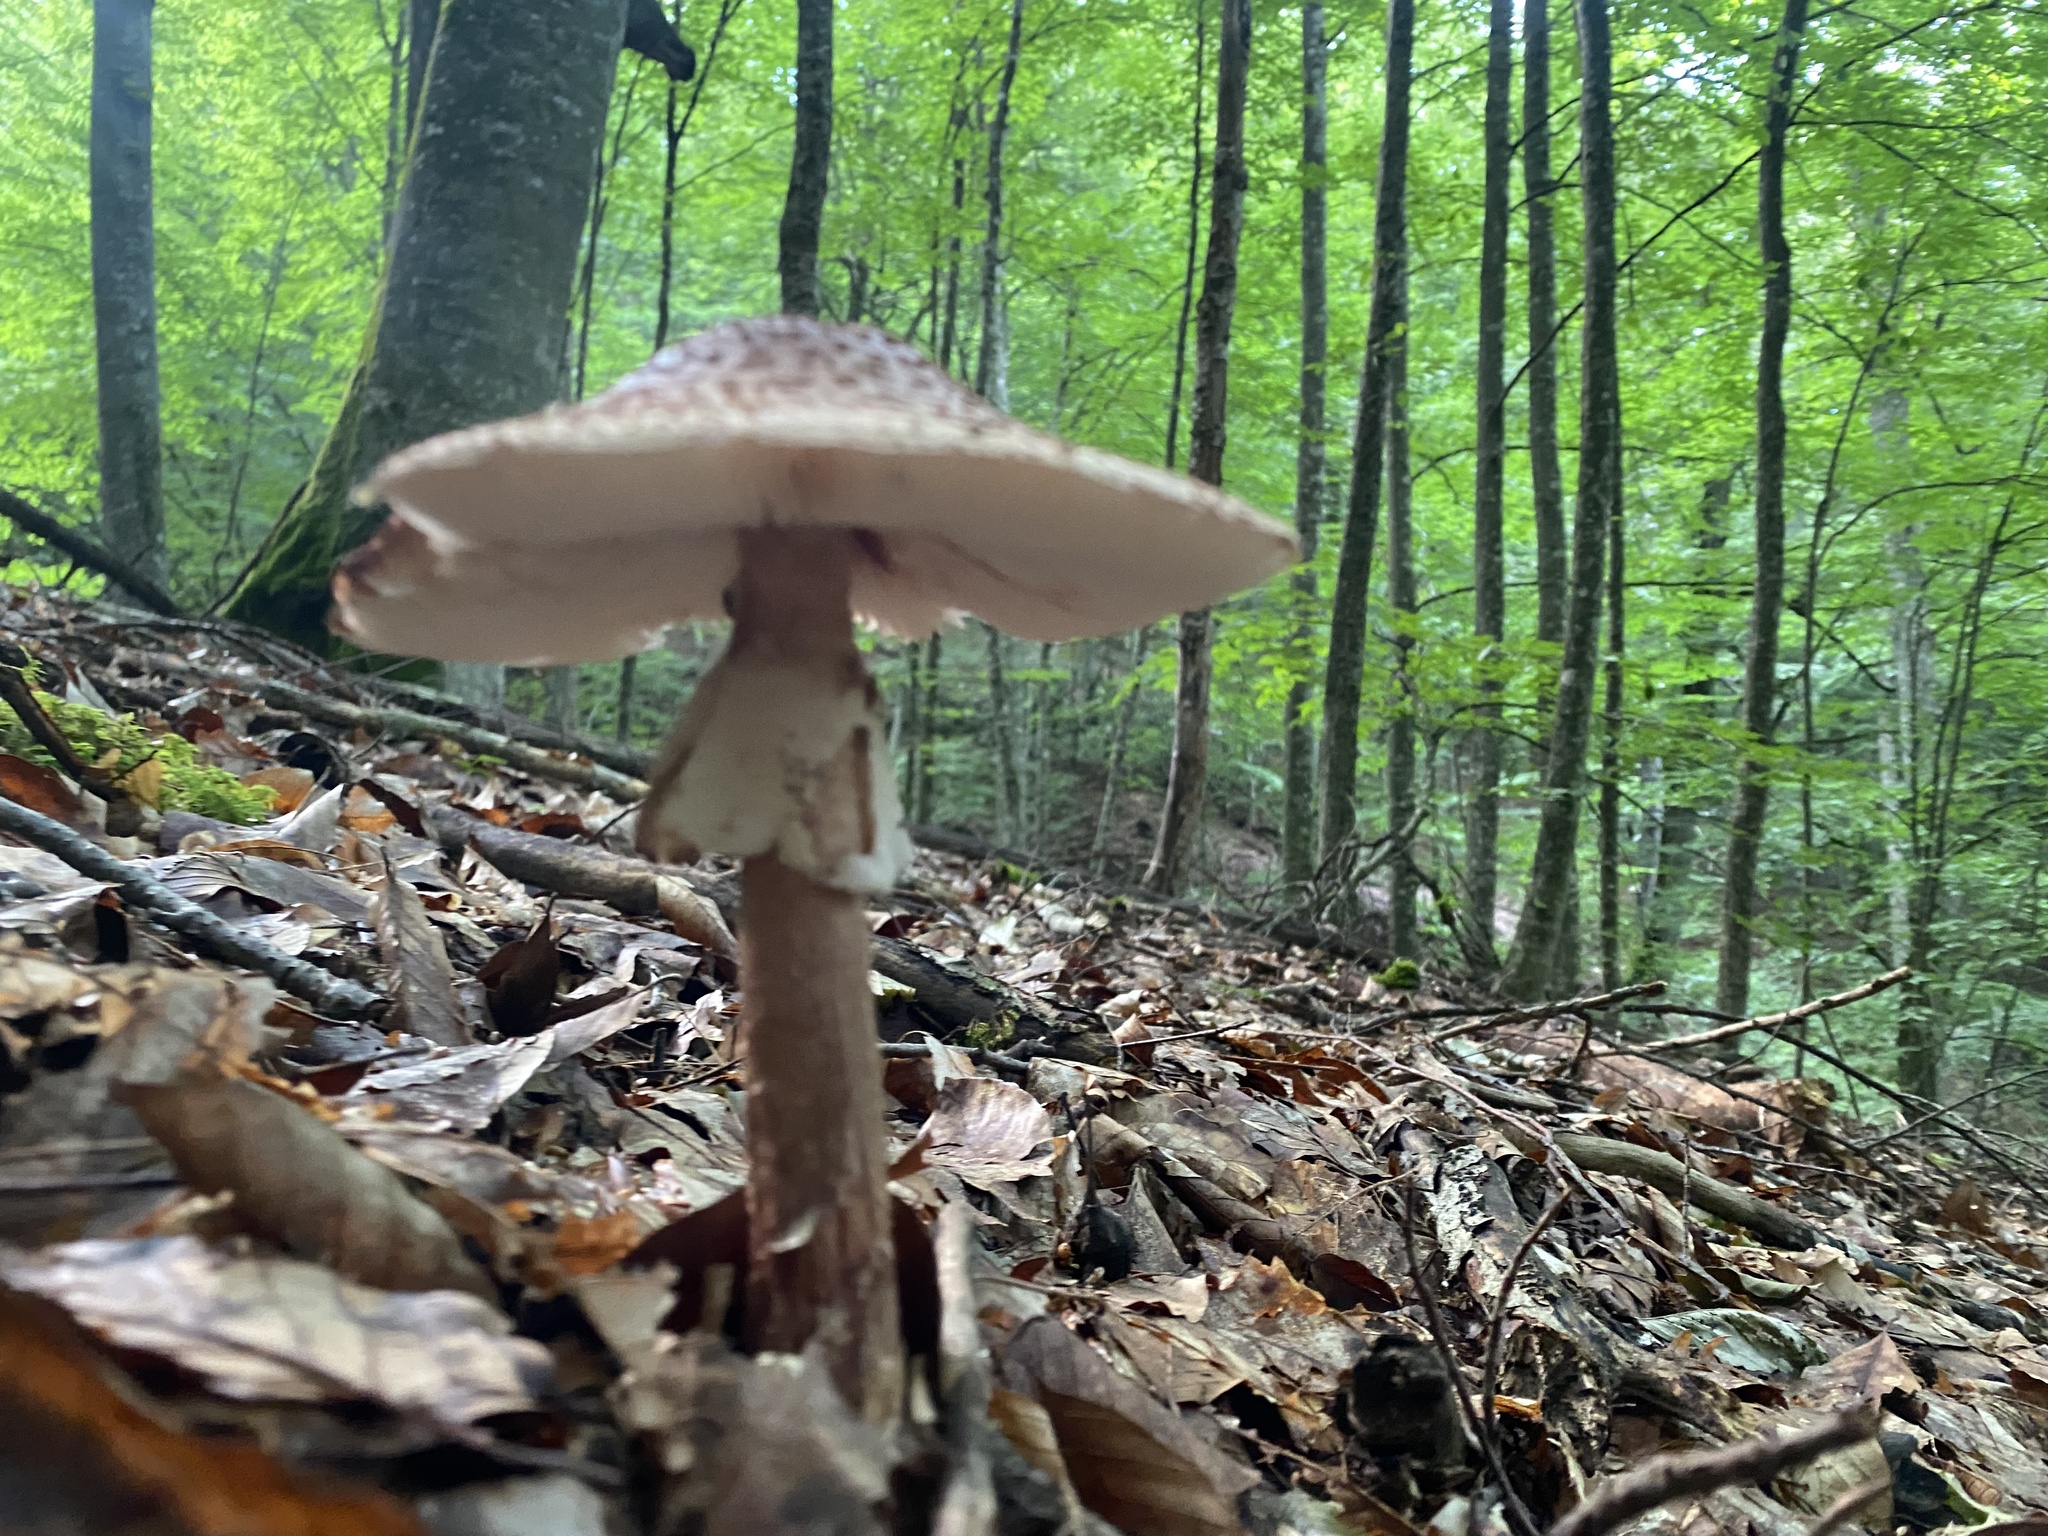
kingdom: Fungi
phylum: Basidiomycota
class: Agaricomycetes
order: Agaricales
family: Amanitaceae
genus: Amanita
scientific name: Amanita rubescens
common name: Blusher
